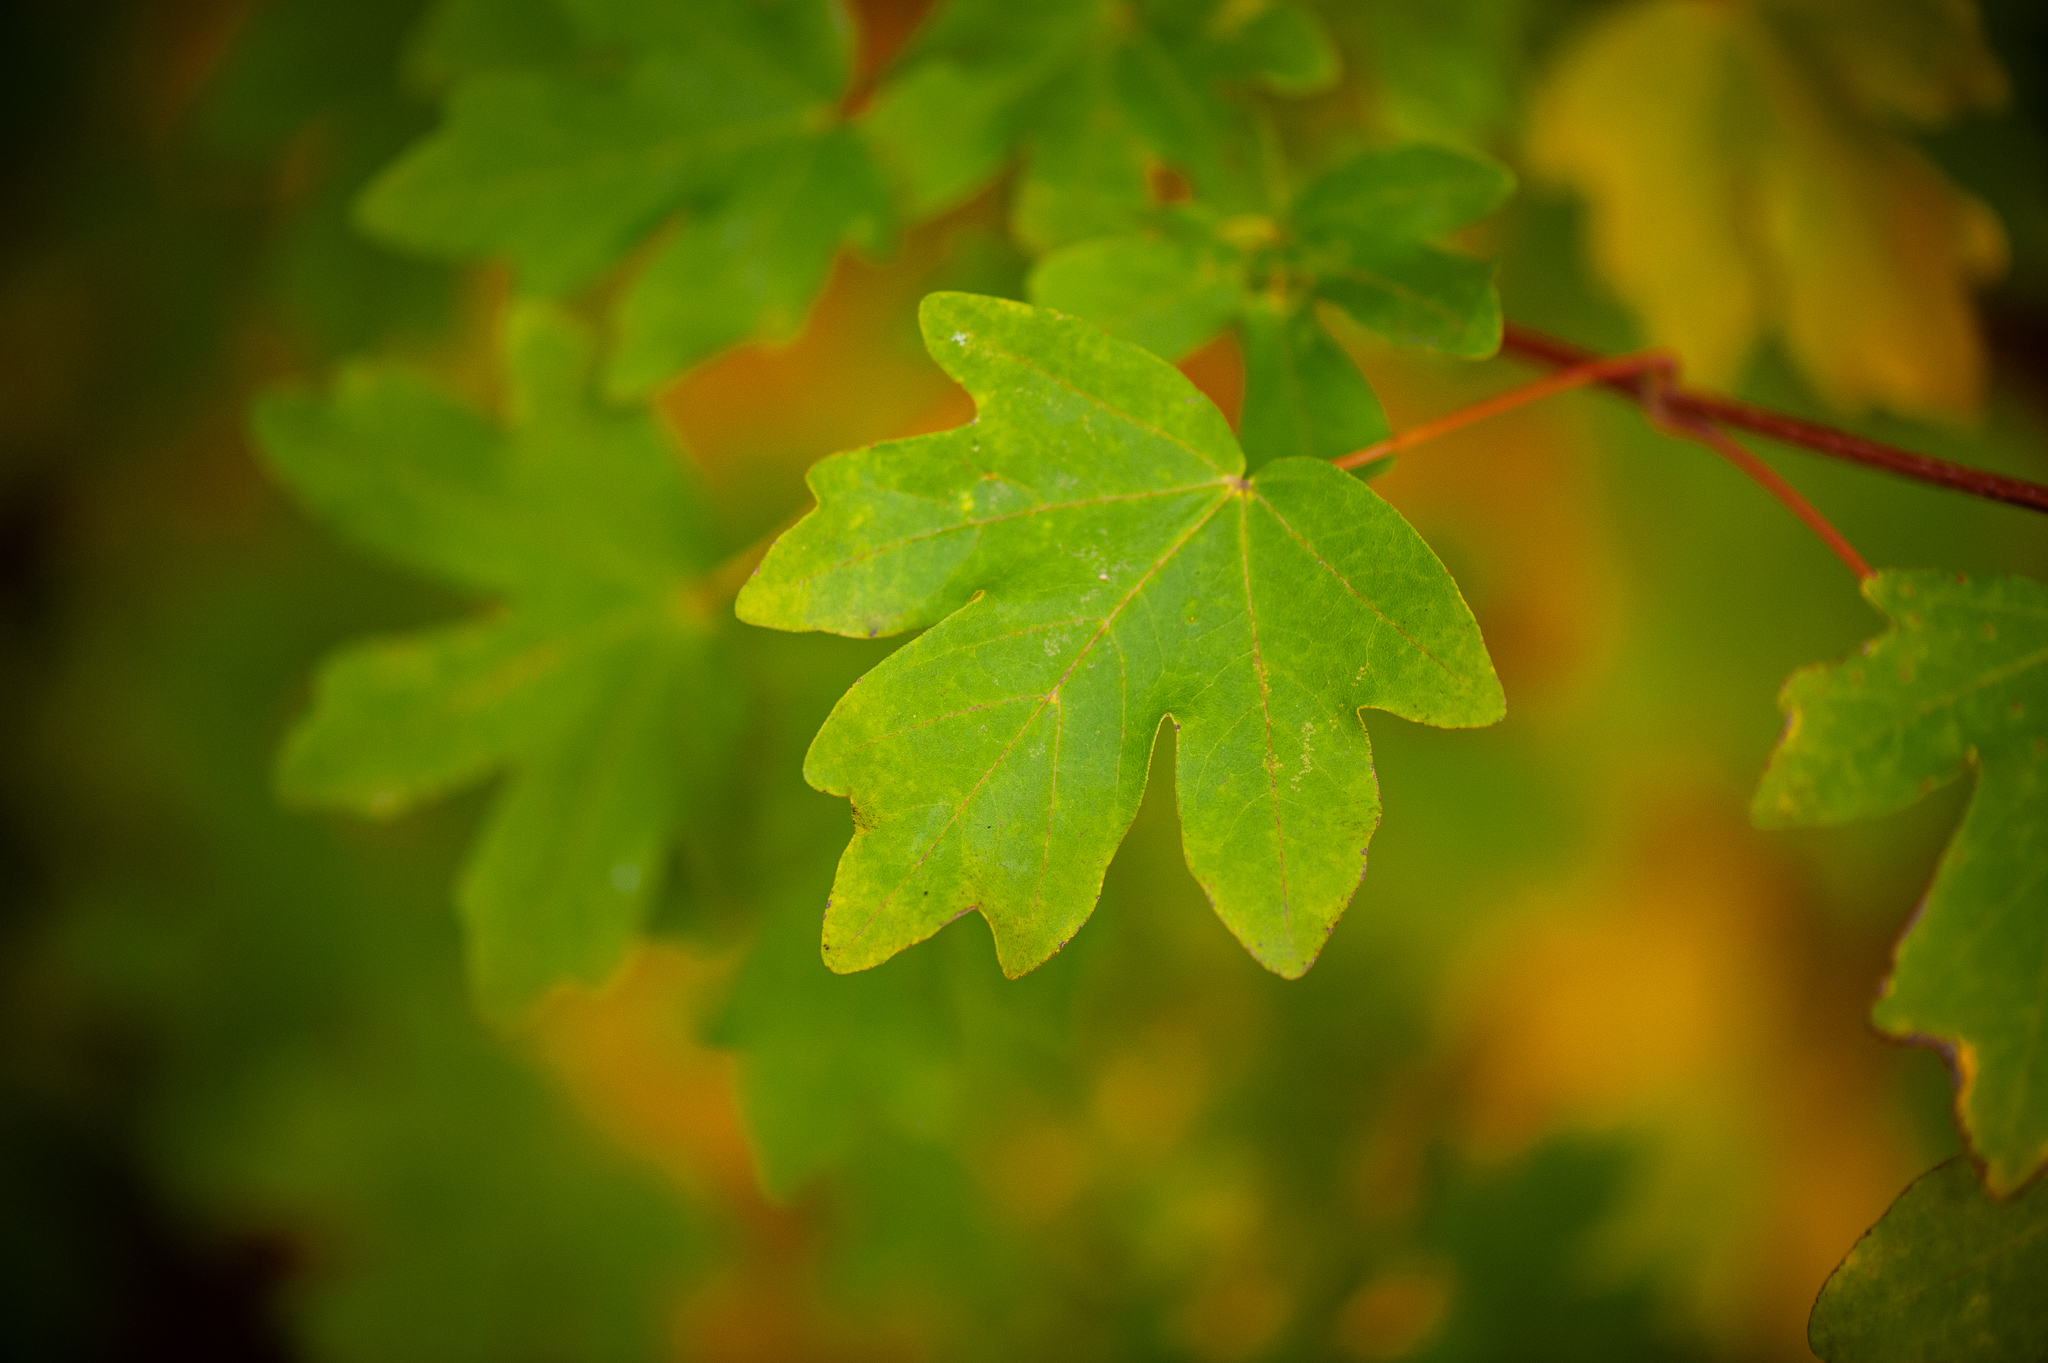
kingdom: Plantae
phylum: Tracheophyta
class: Magnoliopsida
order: Sapindales
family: Sapindaceae
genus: Acer
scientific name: Acer campestre
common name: Field maple
